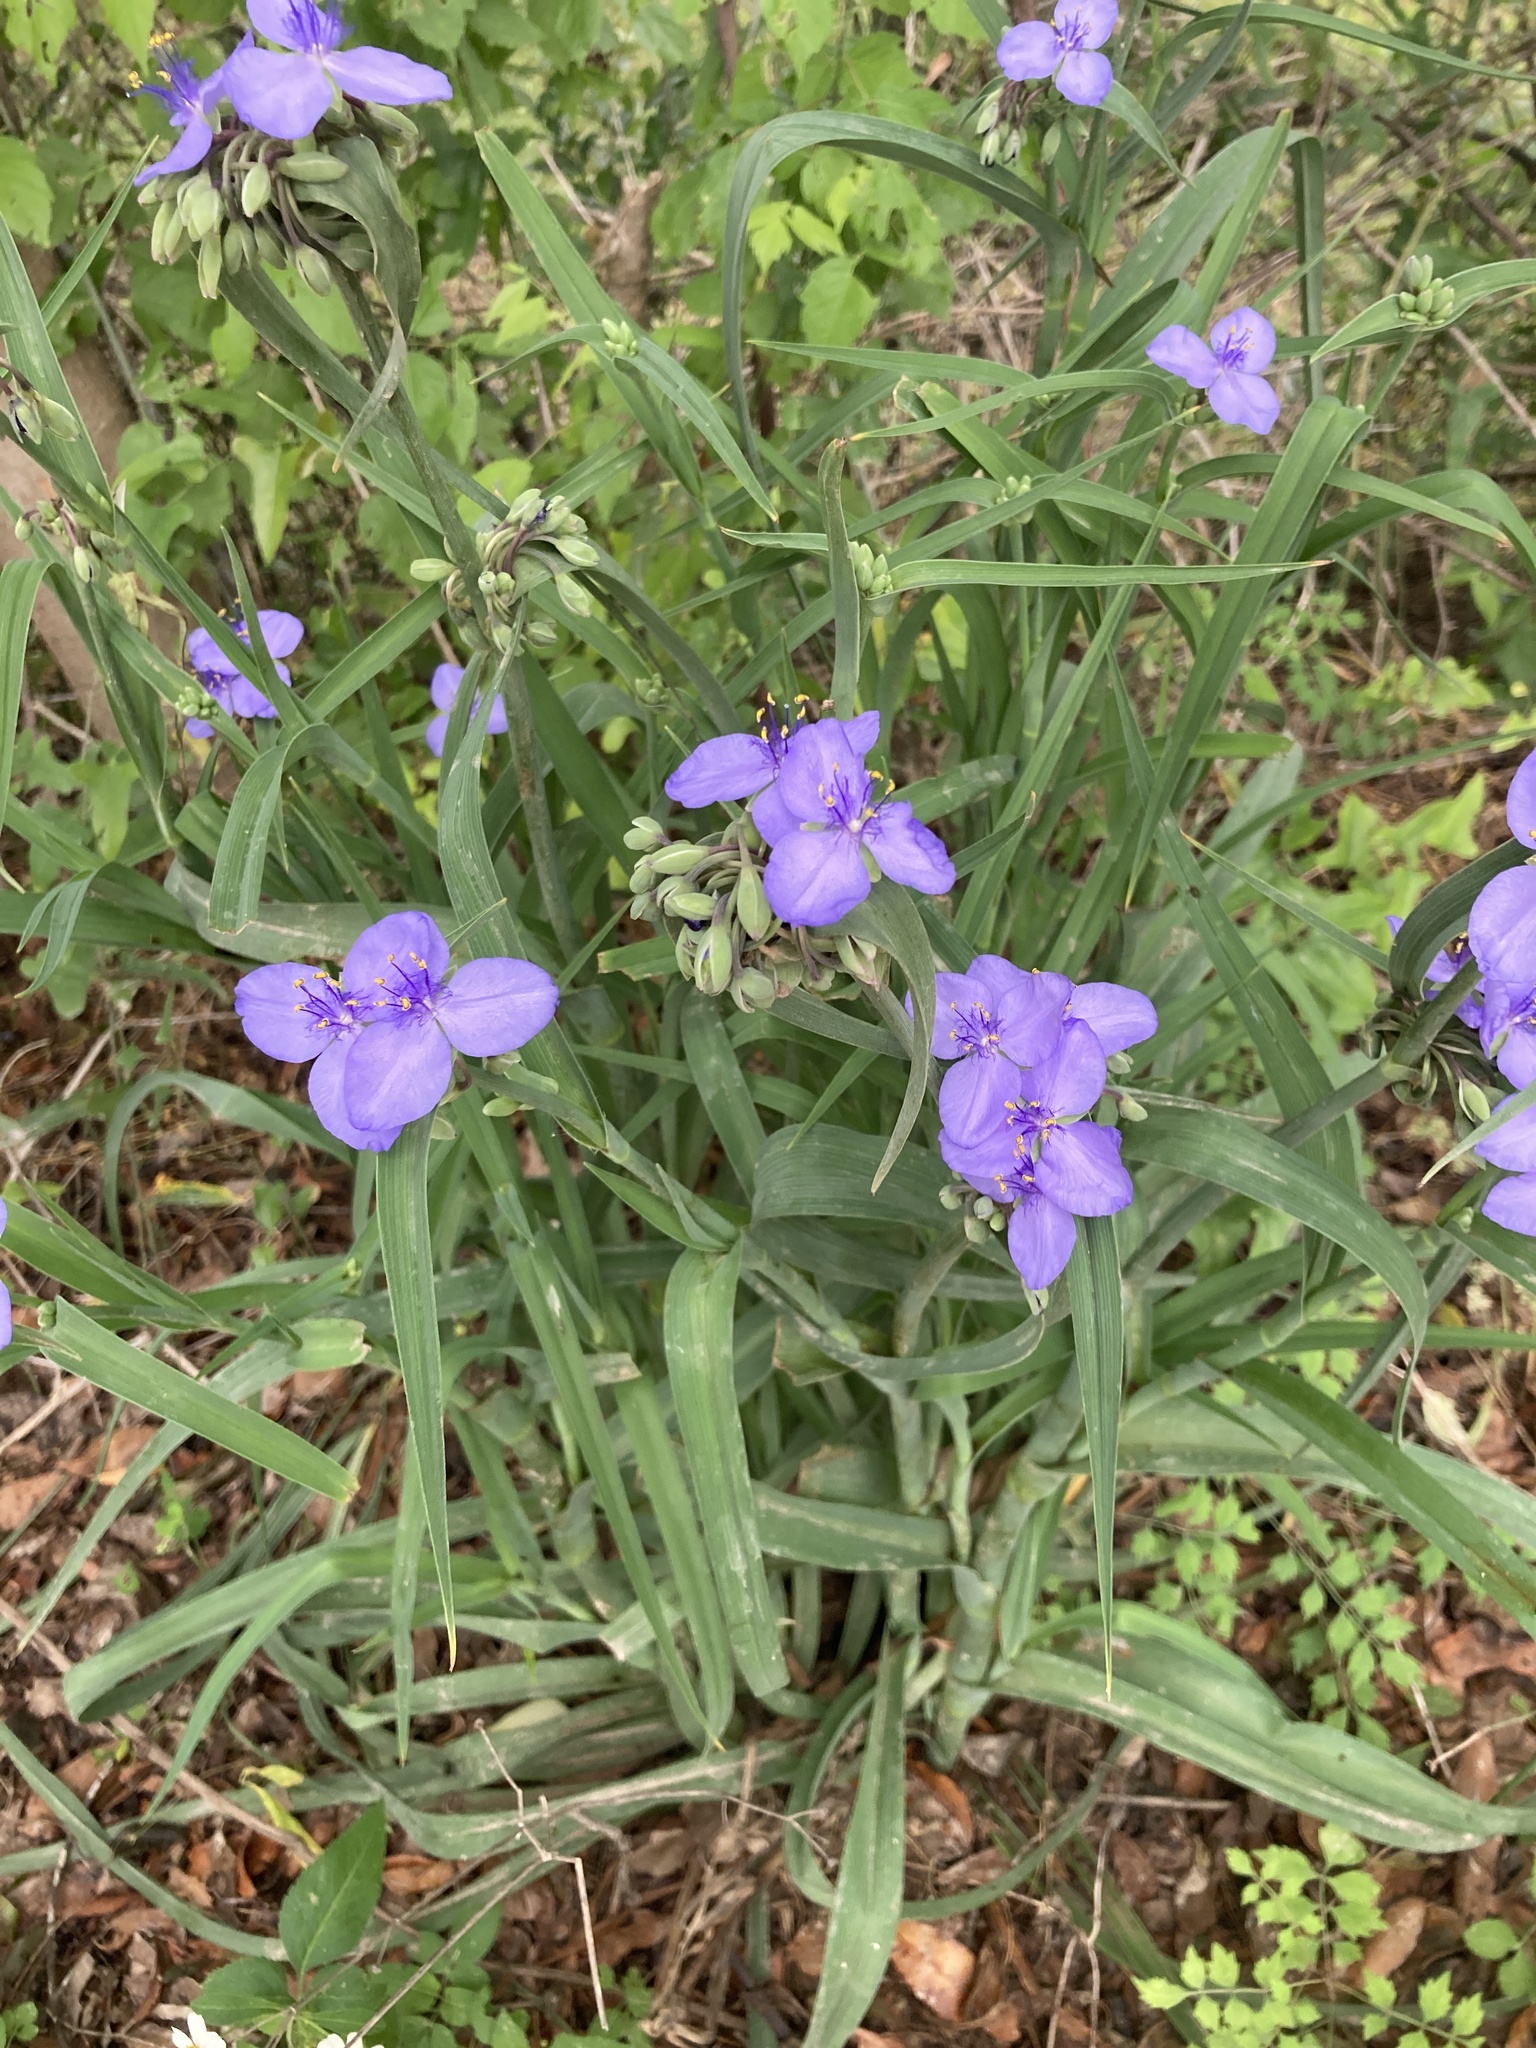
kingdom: Plantae
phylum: Tracheophyta
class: Liliopsida
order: Commelinales
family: Commelinaceae
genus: Tradescantia
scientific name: Tradescantia ohiensis
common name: Ohio spiderwort
